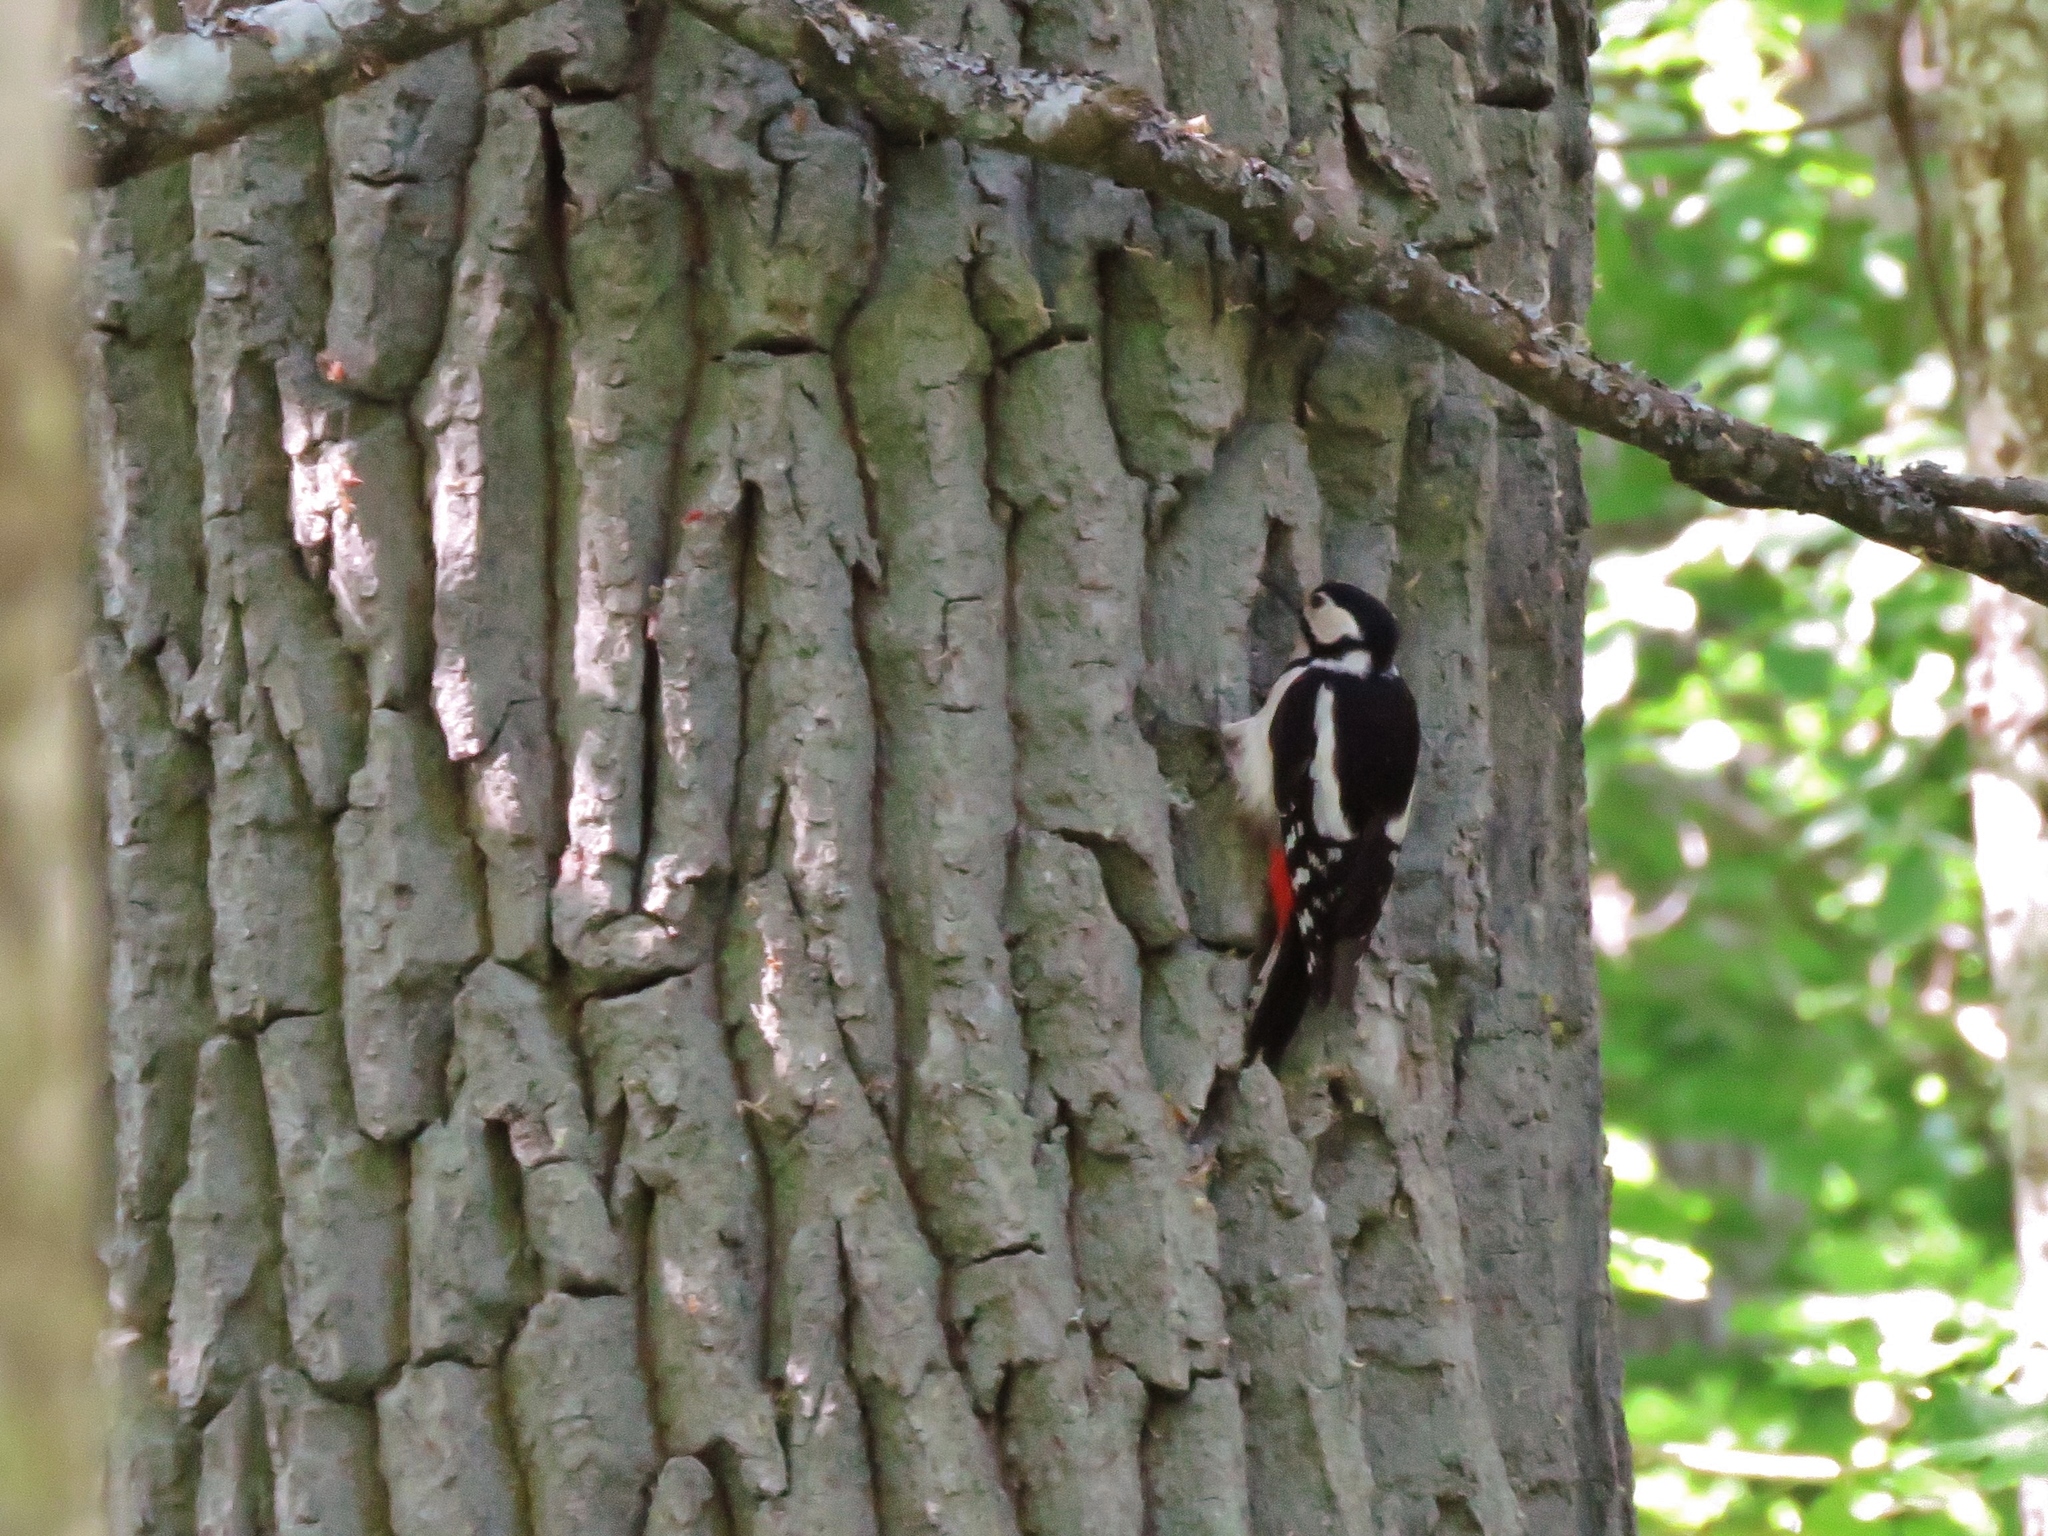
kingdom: Animalia
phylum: Chordata
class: Aves
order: Piciformes
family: Picidae
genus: Dendrocopos
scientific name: Dendrocopos major
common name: Great spotted woodpecker
